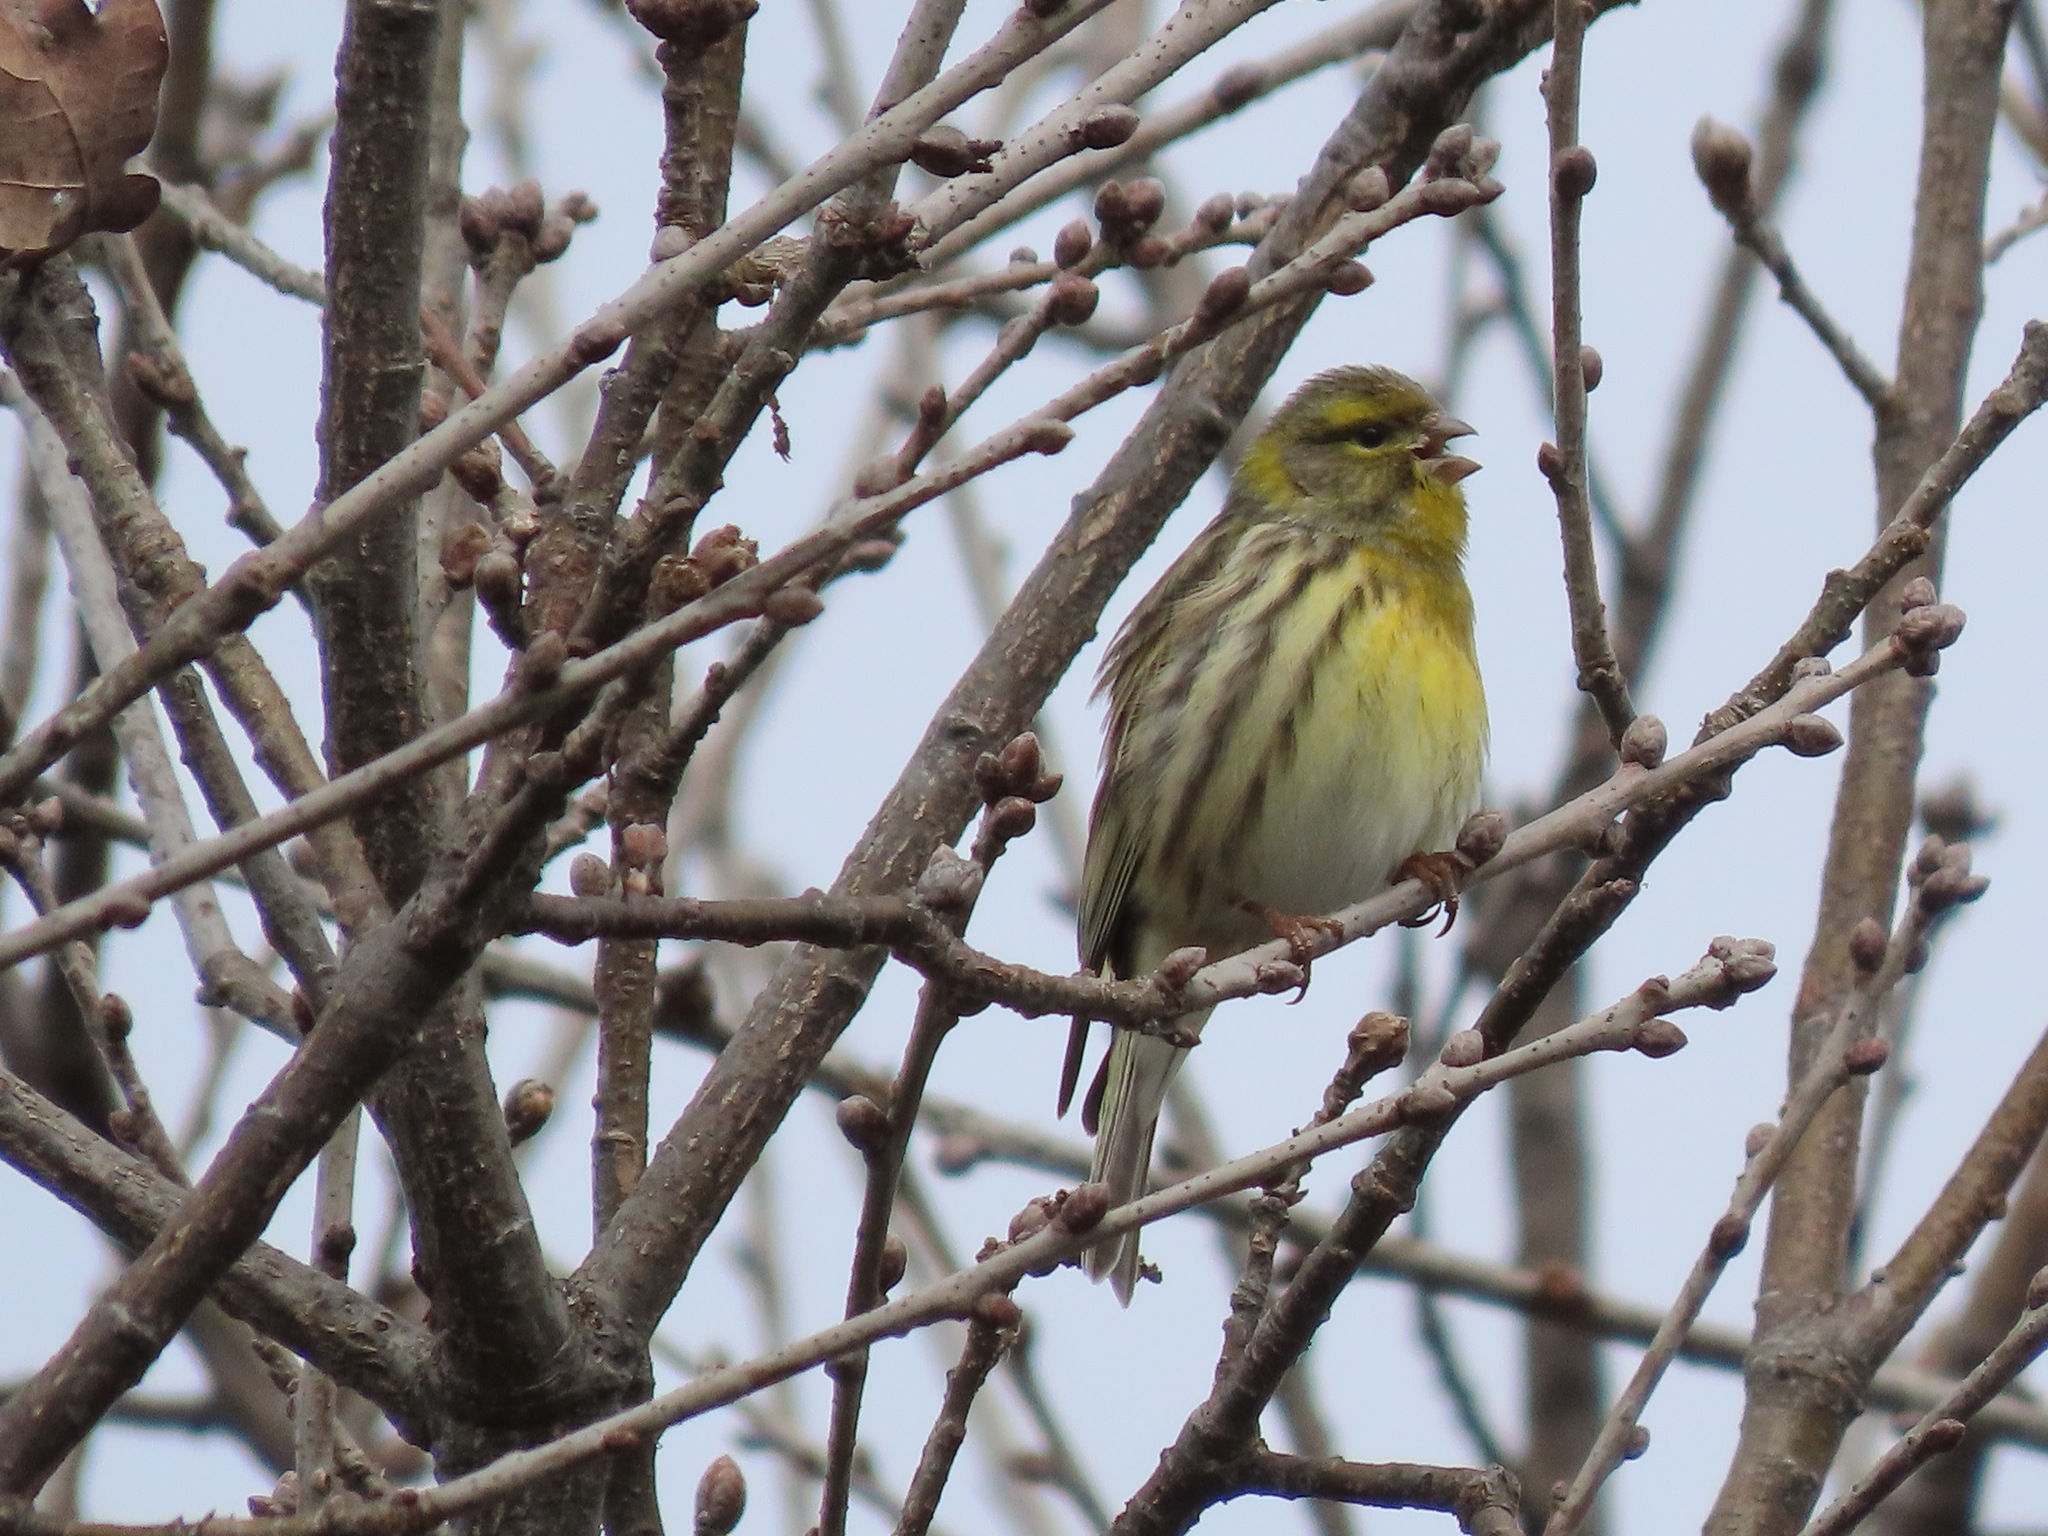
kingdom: Animalia
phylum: Chordata
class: Aves
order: Passeriformes
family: Fringillidae
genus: Serinus
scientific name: Serinus serinus
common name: European serin
